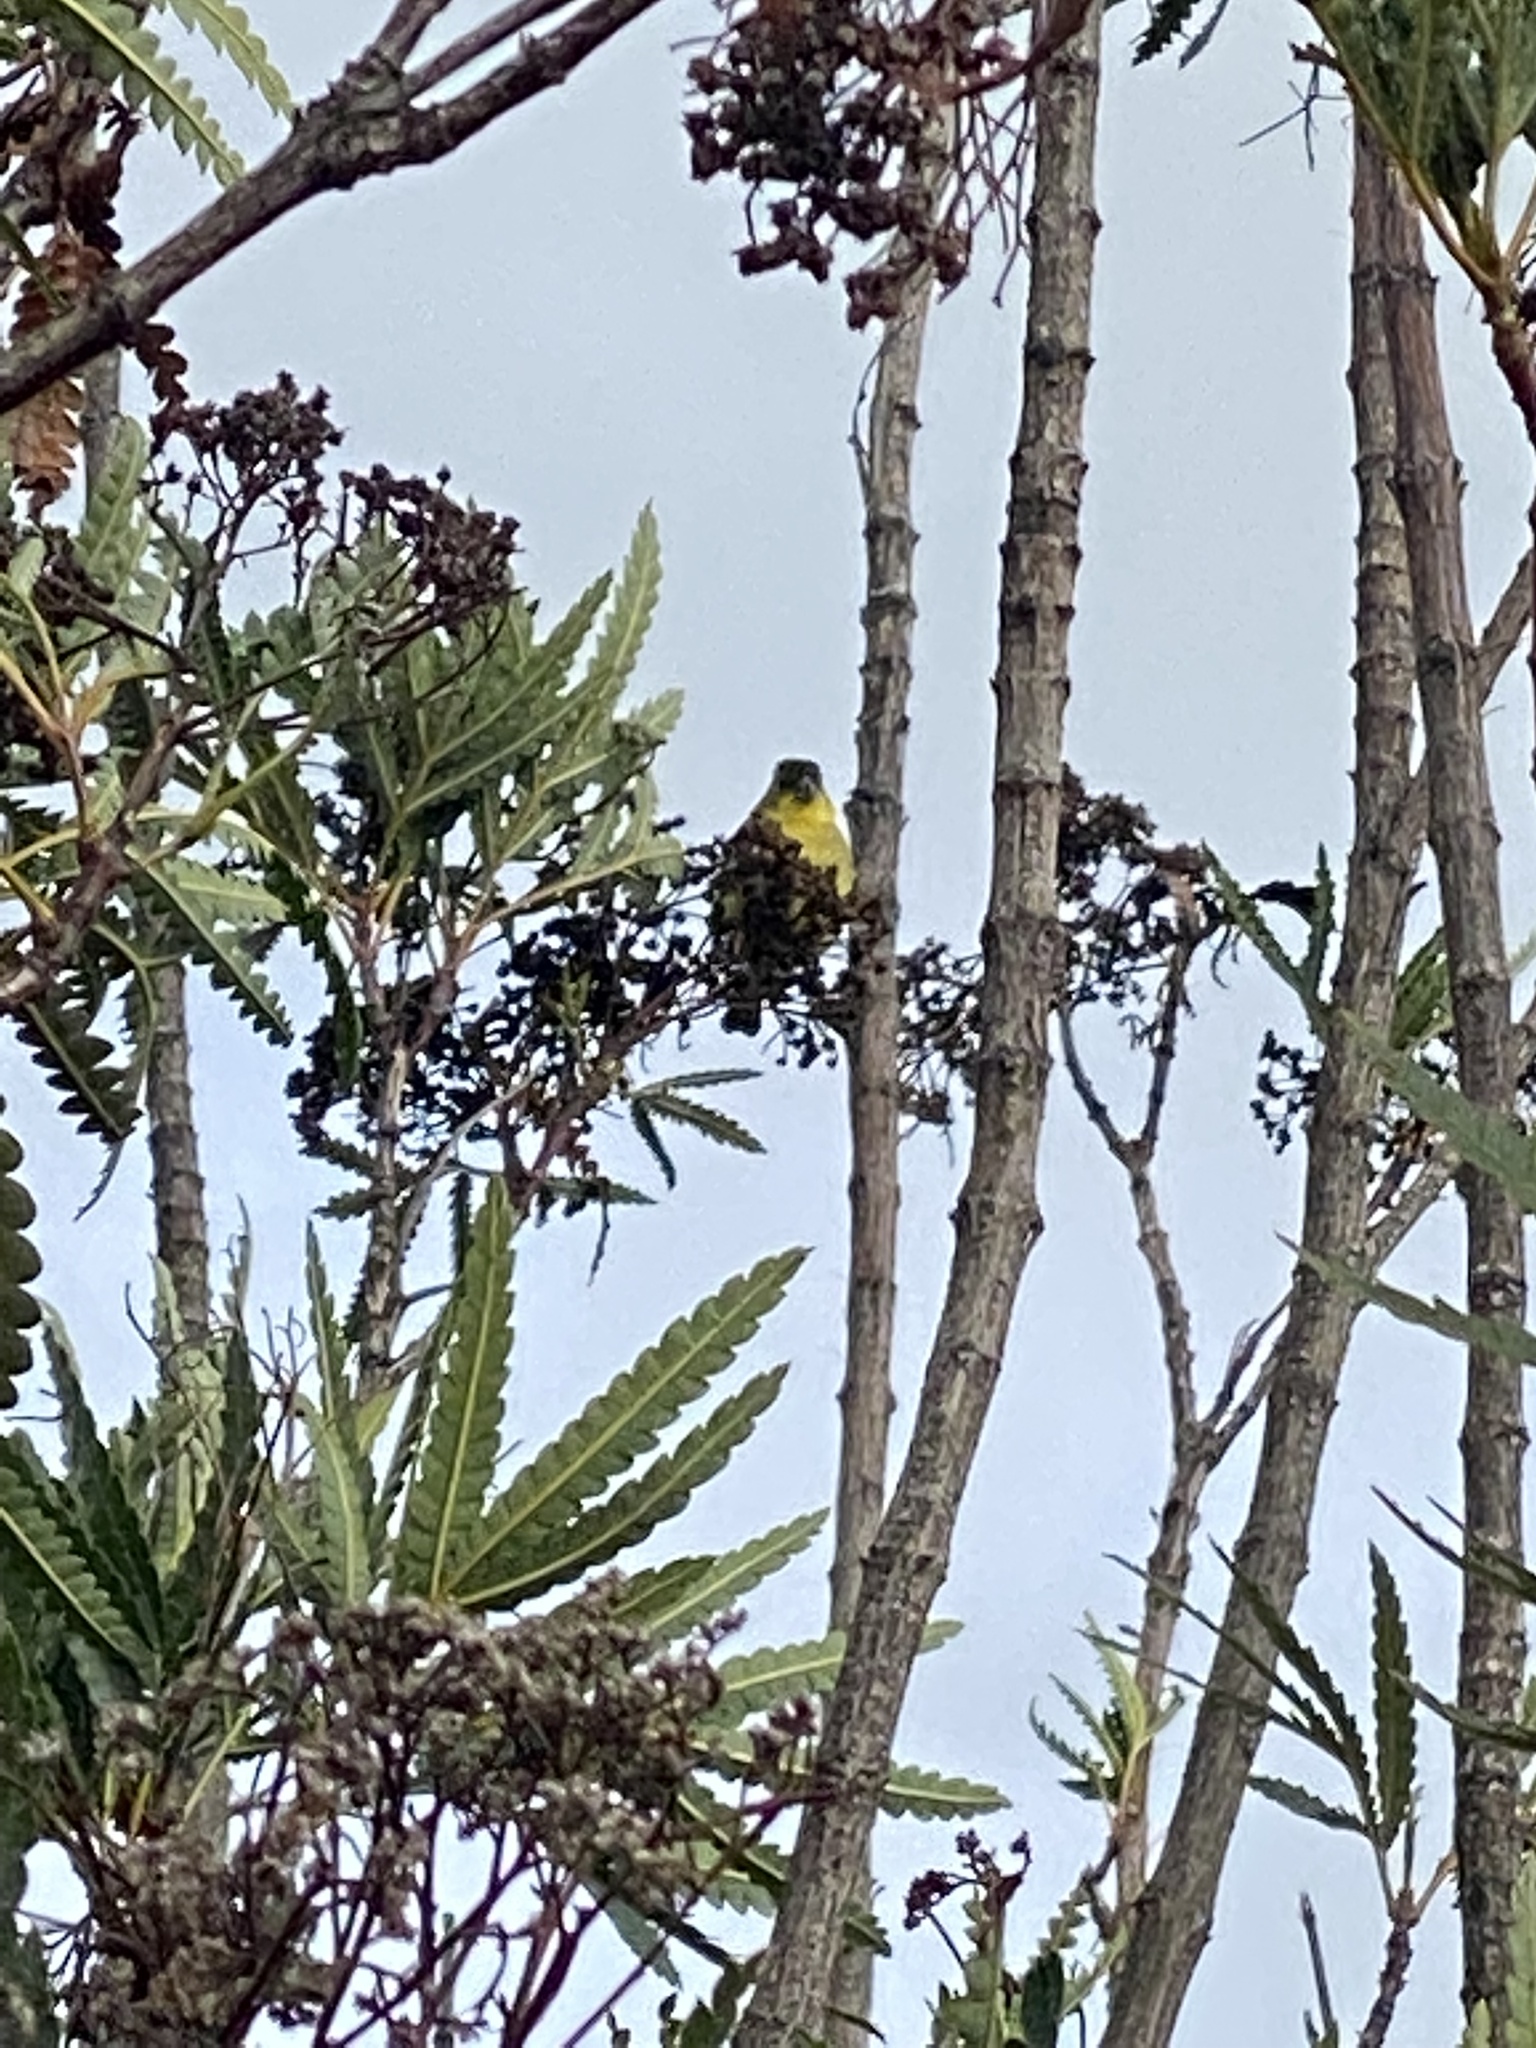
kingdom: Animalia
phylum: Chordata
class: Aves
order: Passeriformes
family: Fringillidae
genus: Spinus
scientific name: Spinus psaltria
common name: Lesser goldfinch
